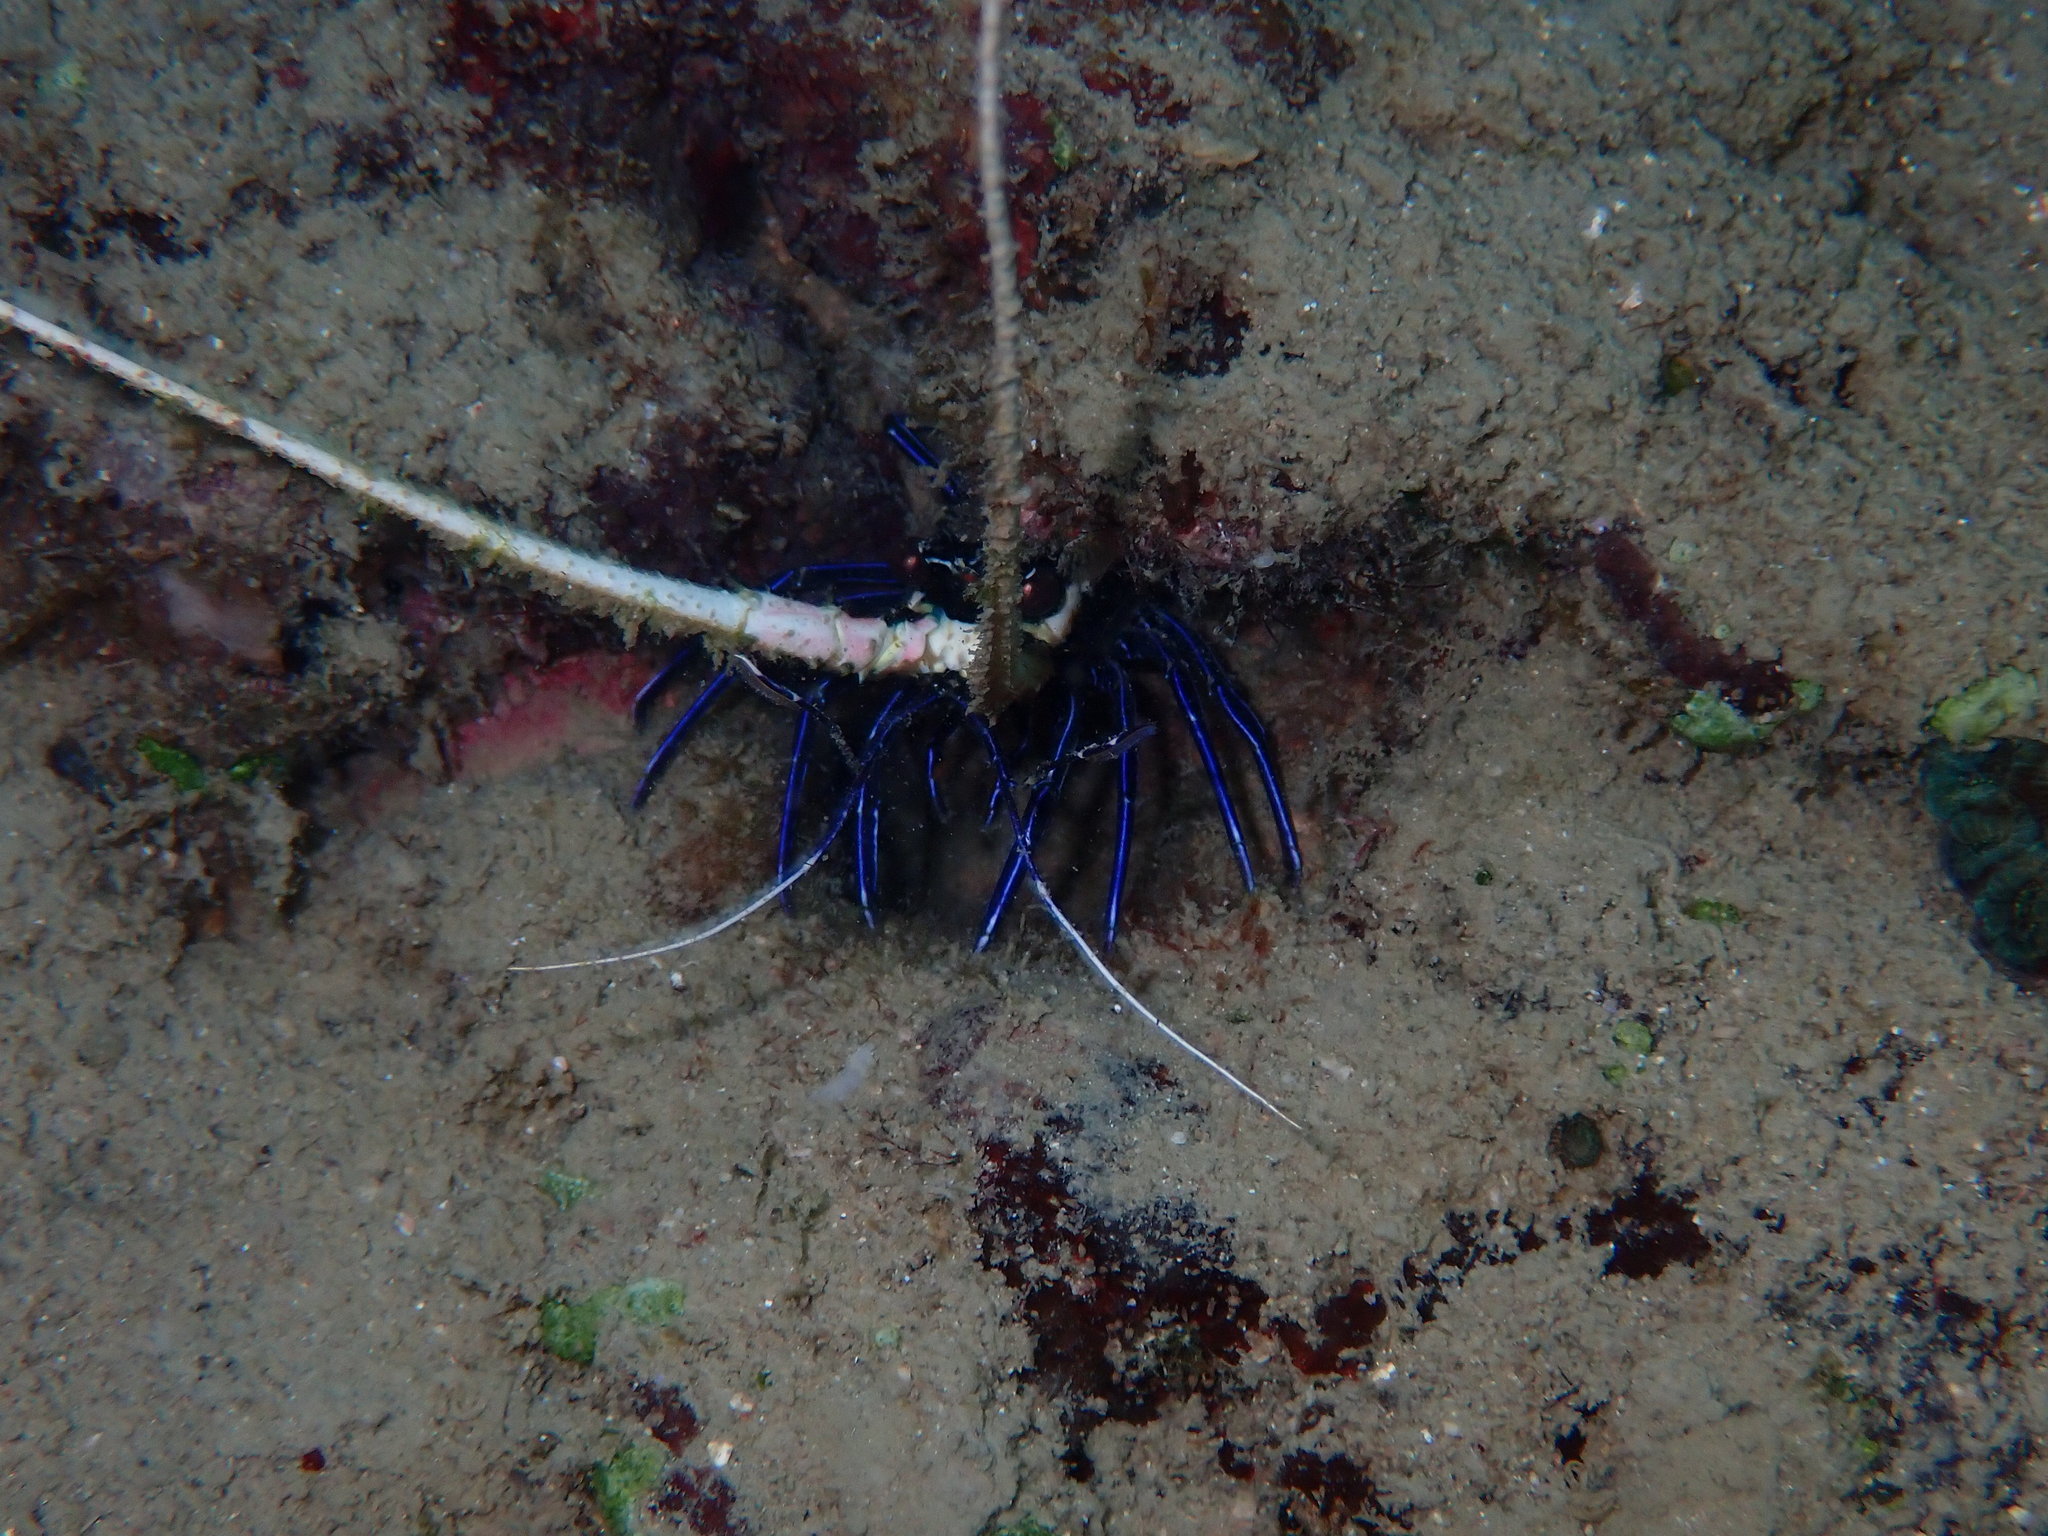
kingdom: Animalia
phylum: Arthropoda
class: Malacostraca
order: Decapoda
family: Palinuridae
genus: Panulirus
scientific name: Panulirus versicolor
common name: Painted spiny lobster
